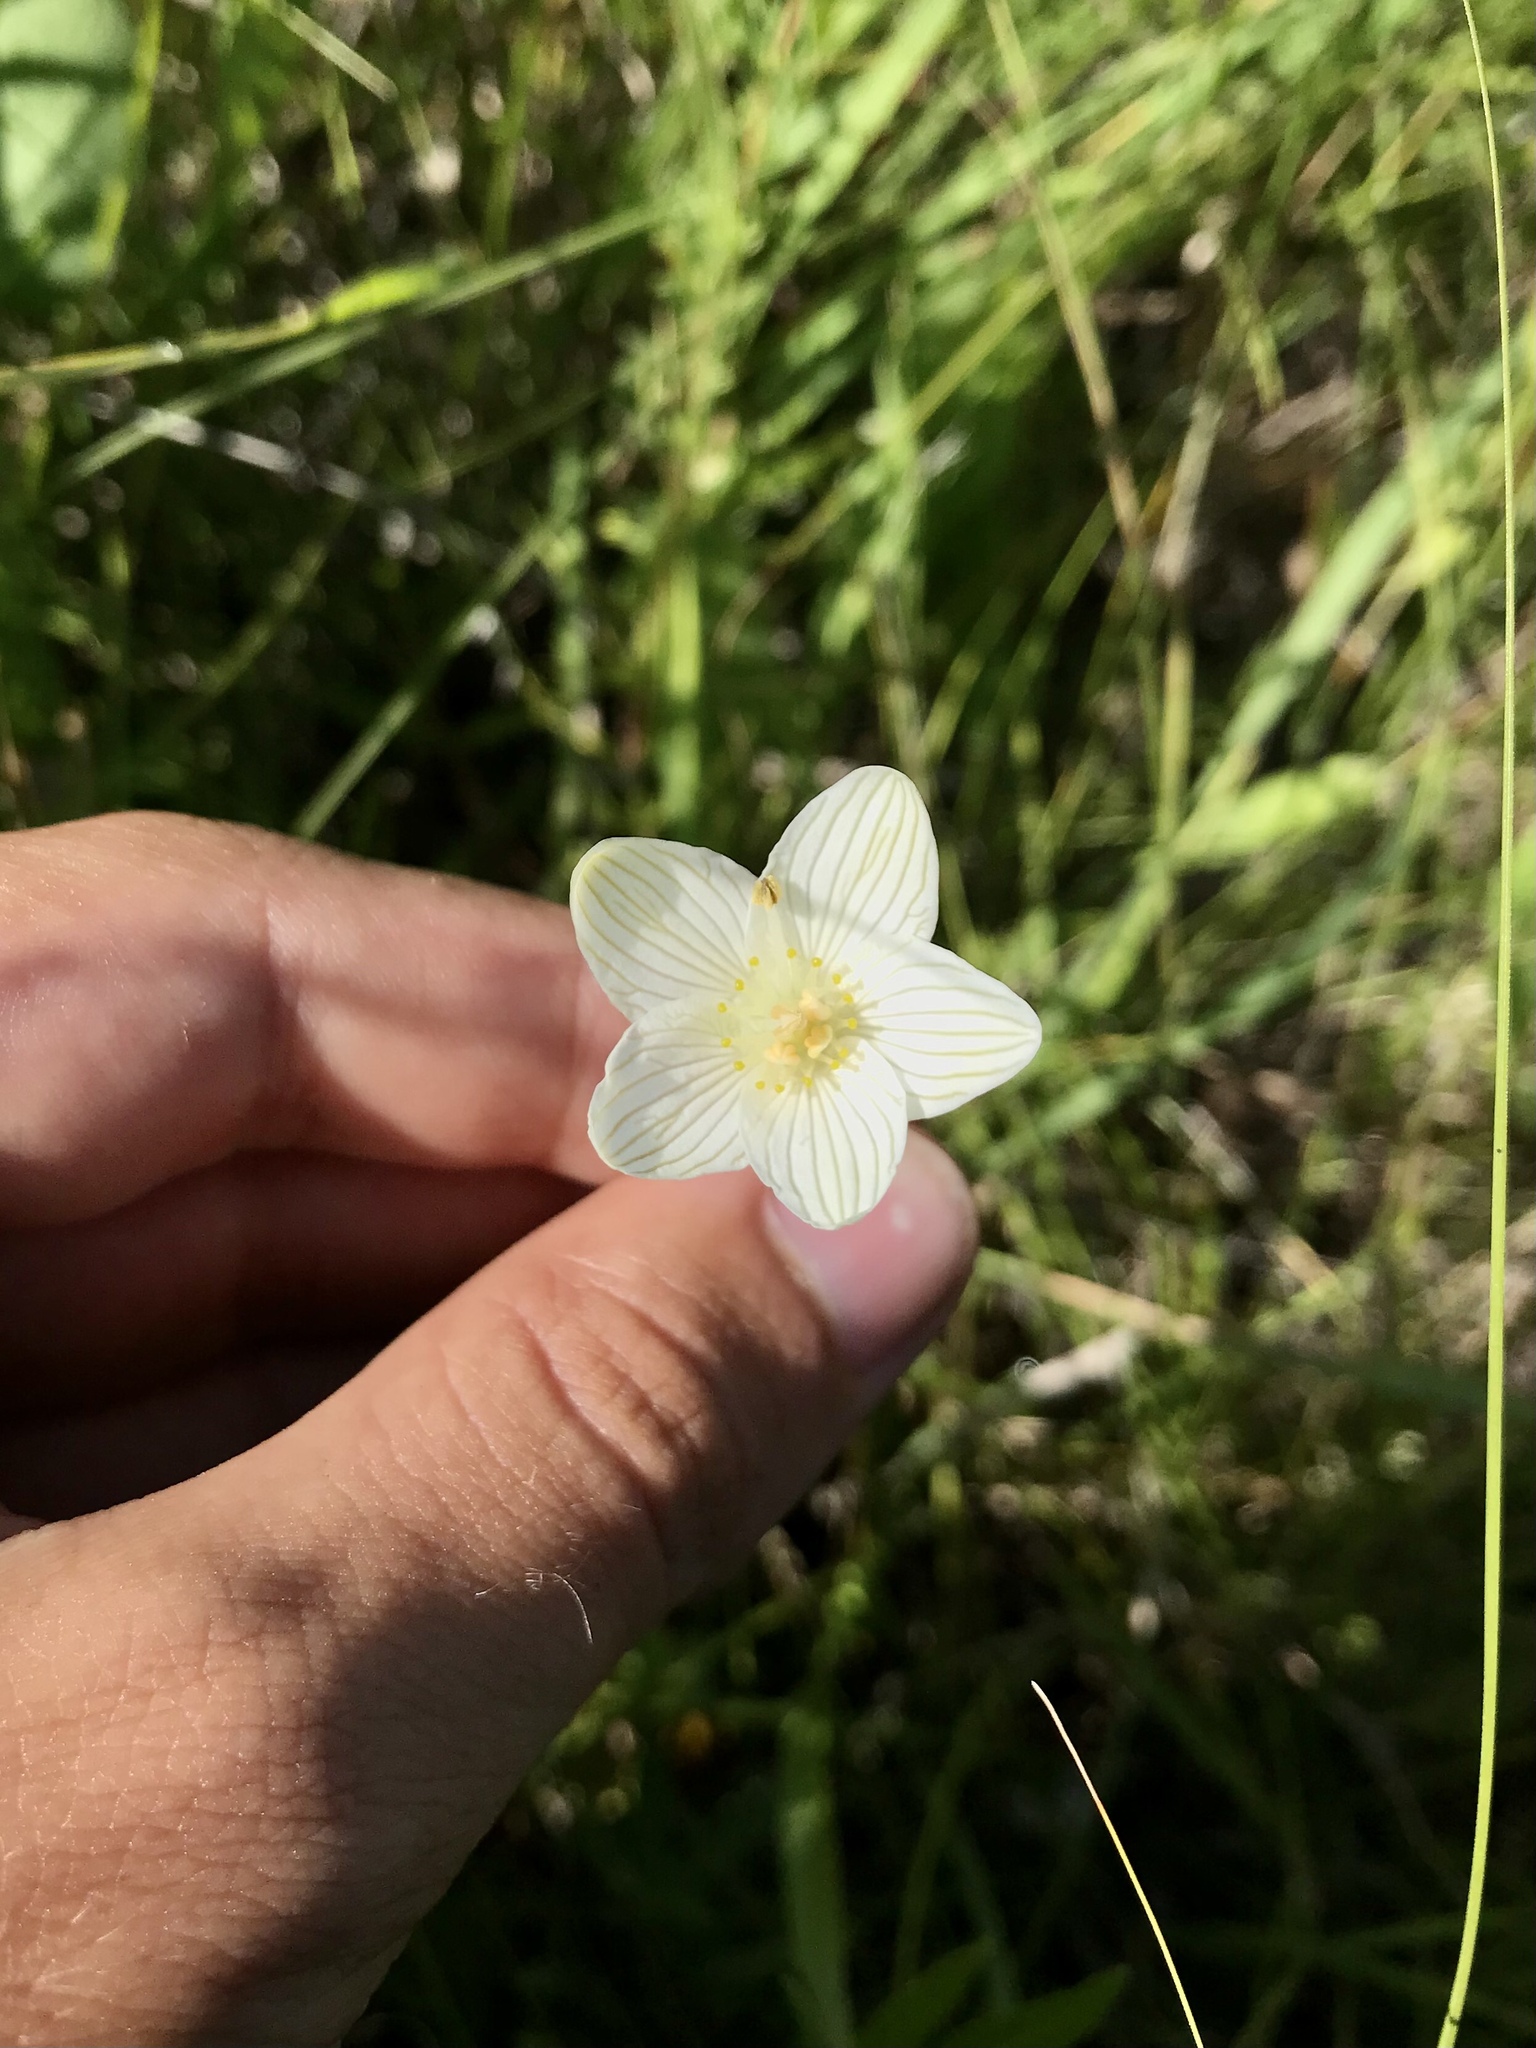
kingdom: Plantae
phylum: Tracheophyta
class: Magnoliopsida
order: Celastrales
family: Parnassiaceae
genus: Parnassia
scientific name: Parnassia glauca
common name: American grass-of-parnassus
